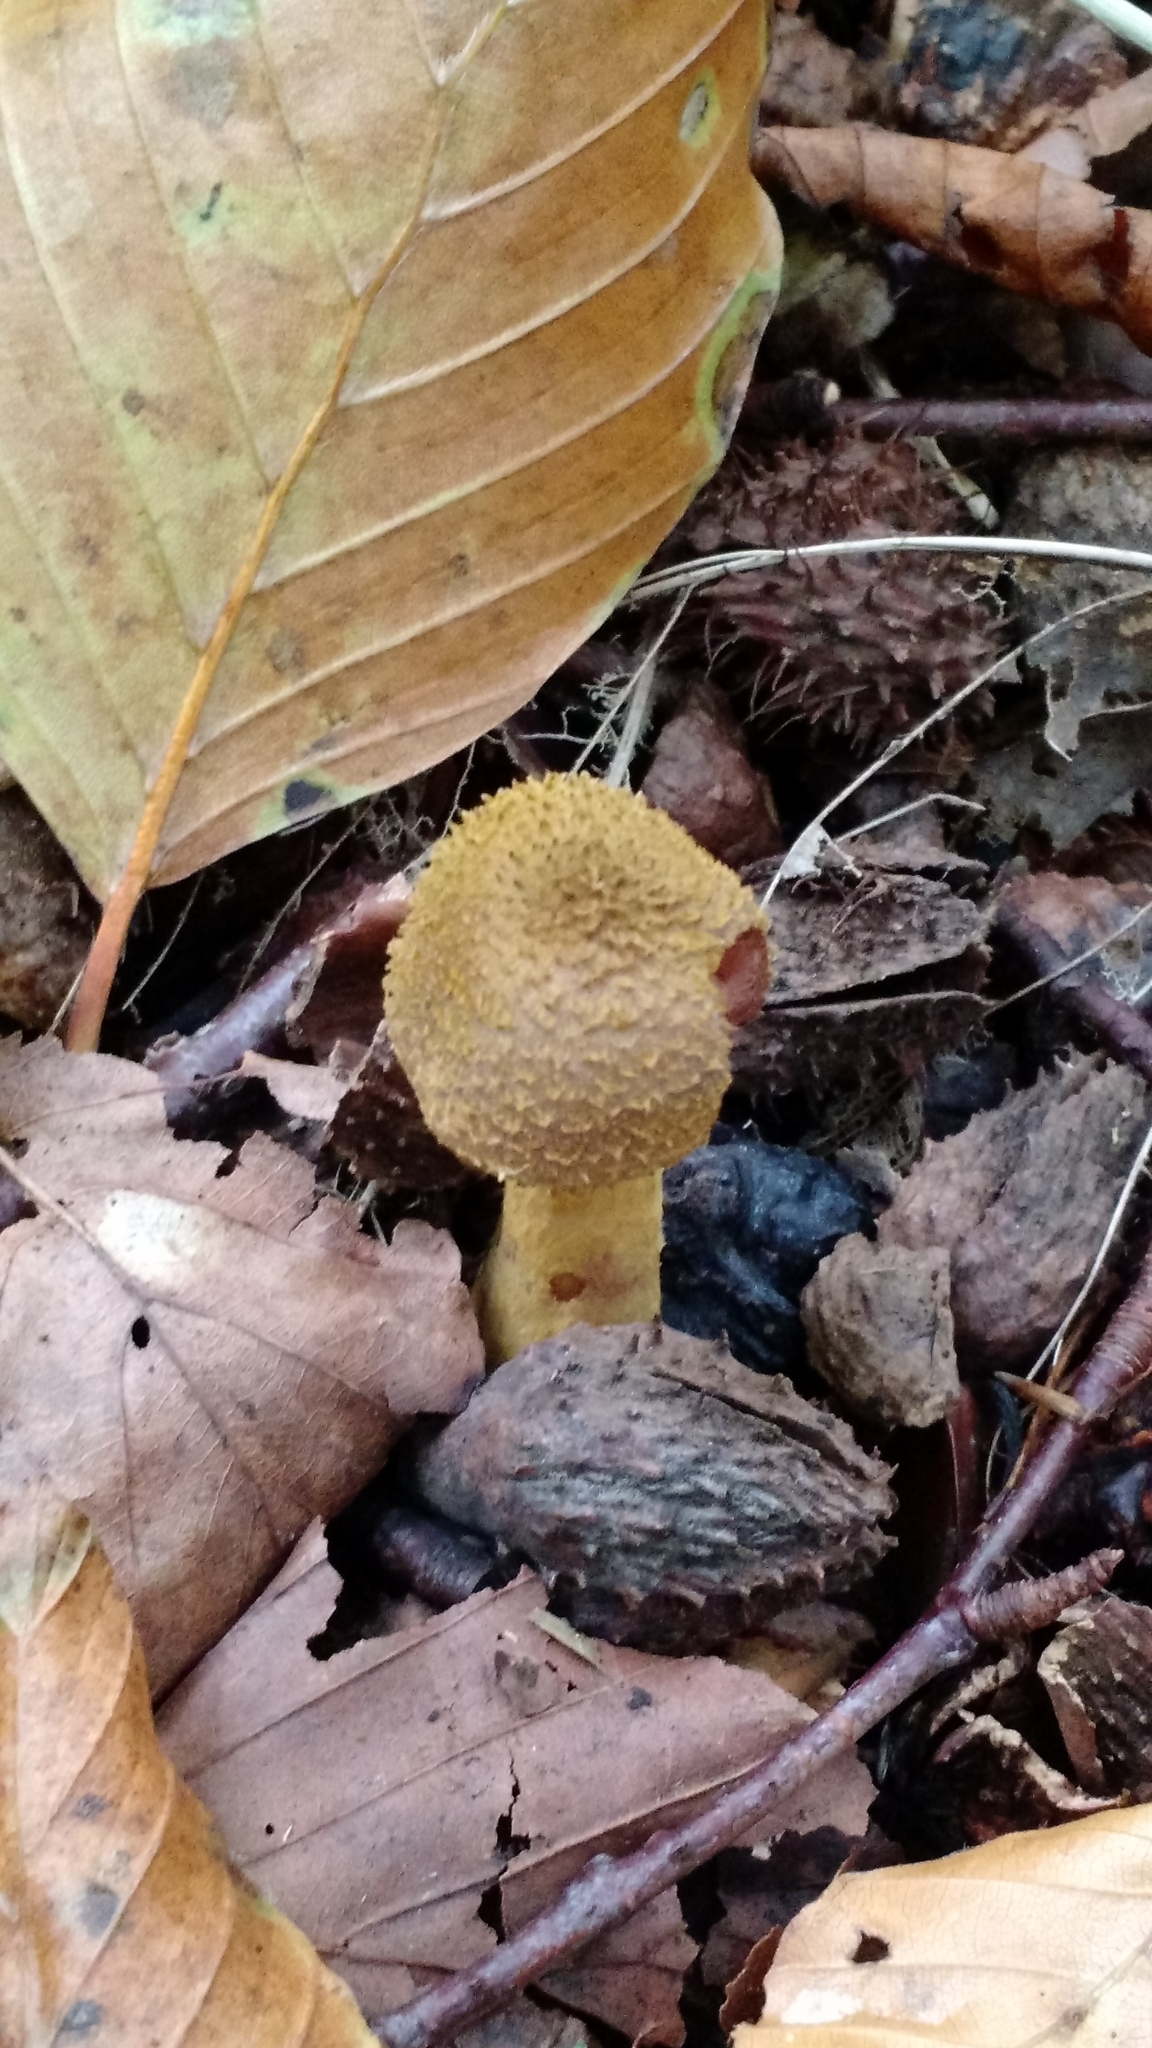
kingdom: Fungi
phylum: Basidiomycota
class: Agaricomycetes
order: Agaricales
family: Physalacriaceae
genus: Armillaria
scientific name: Armillaria gallica
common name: Bulbous honey fungus
